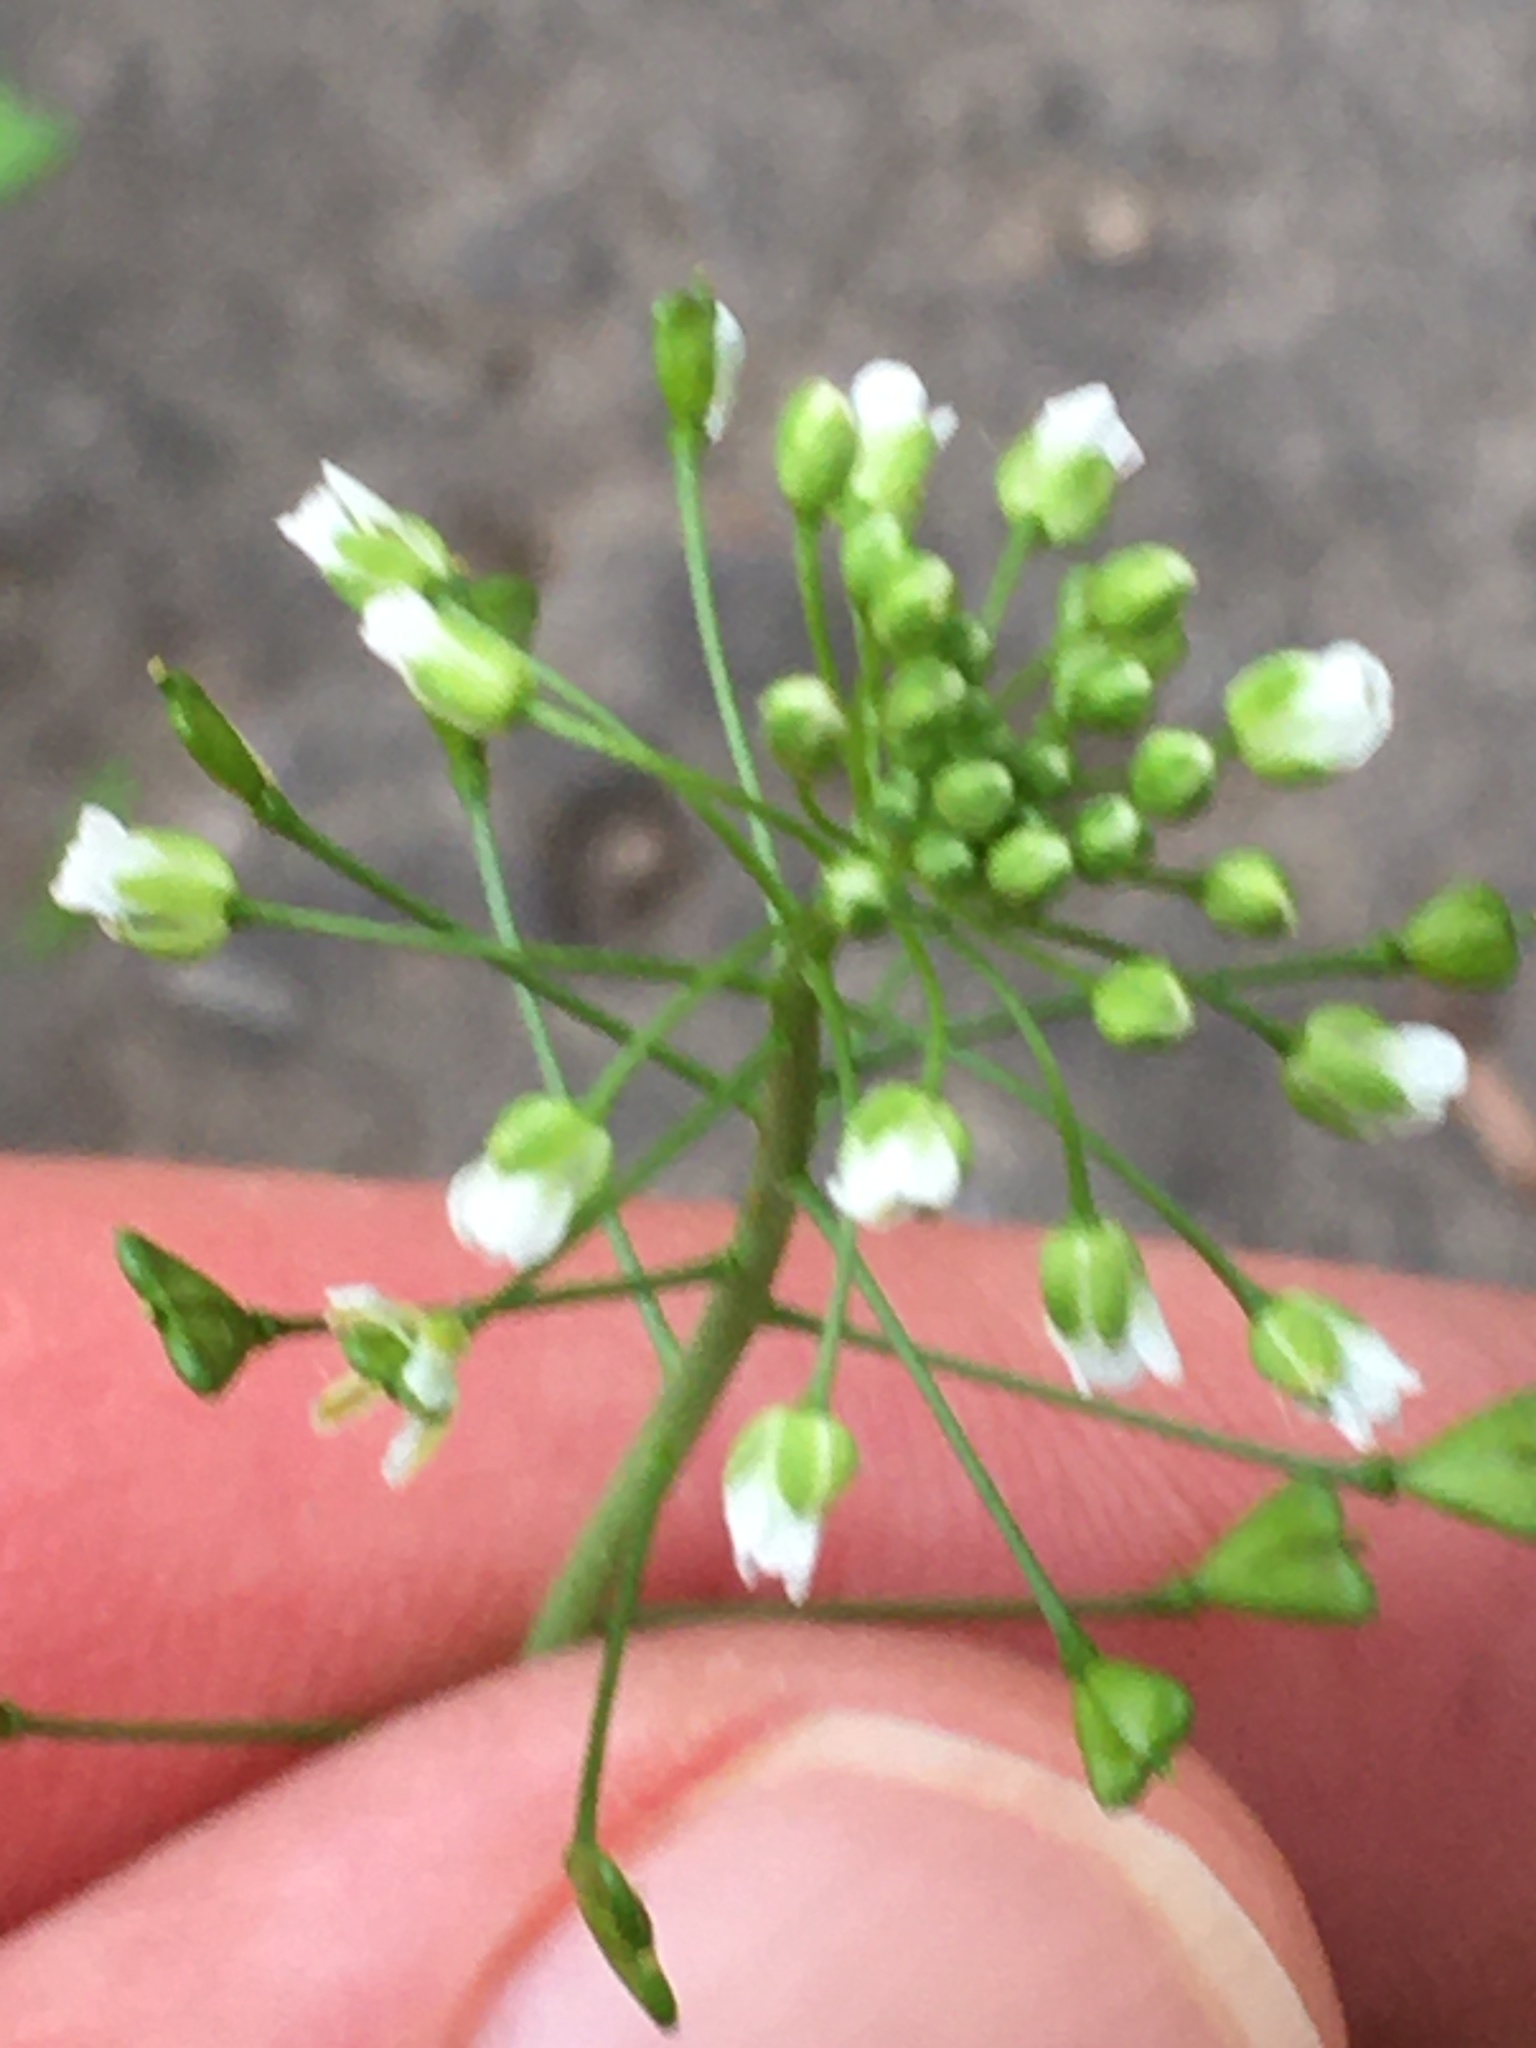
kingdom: Plantae
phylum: Tracheophyta
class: Magnoliopsida
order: Brassicales
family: Brassicaceae
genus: Capsella
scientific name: Capsella bursa-pastoris
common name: Shepherd's purse
